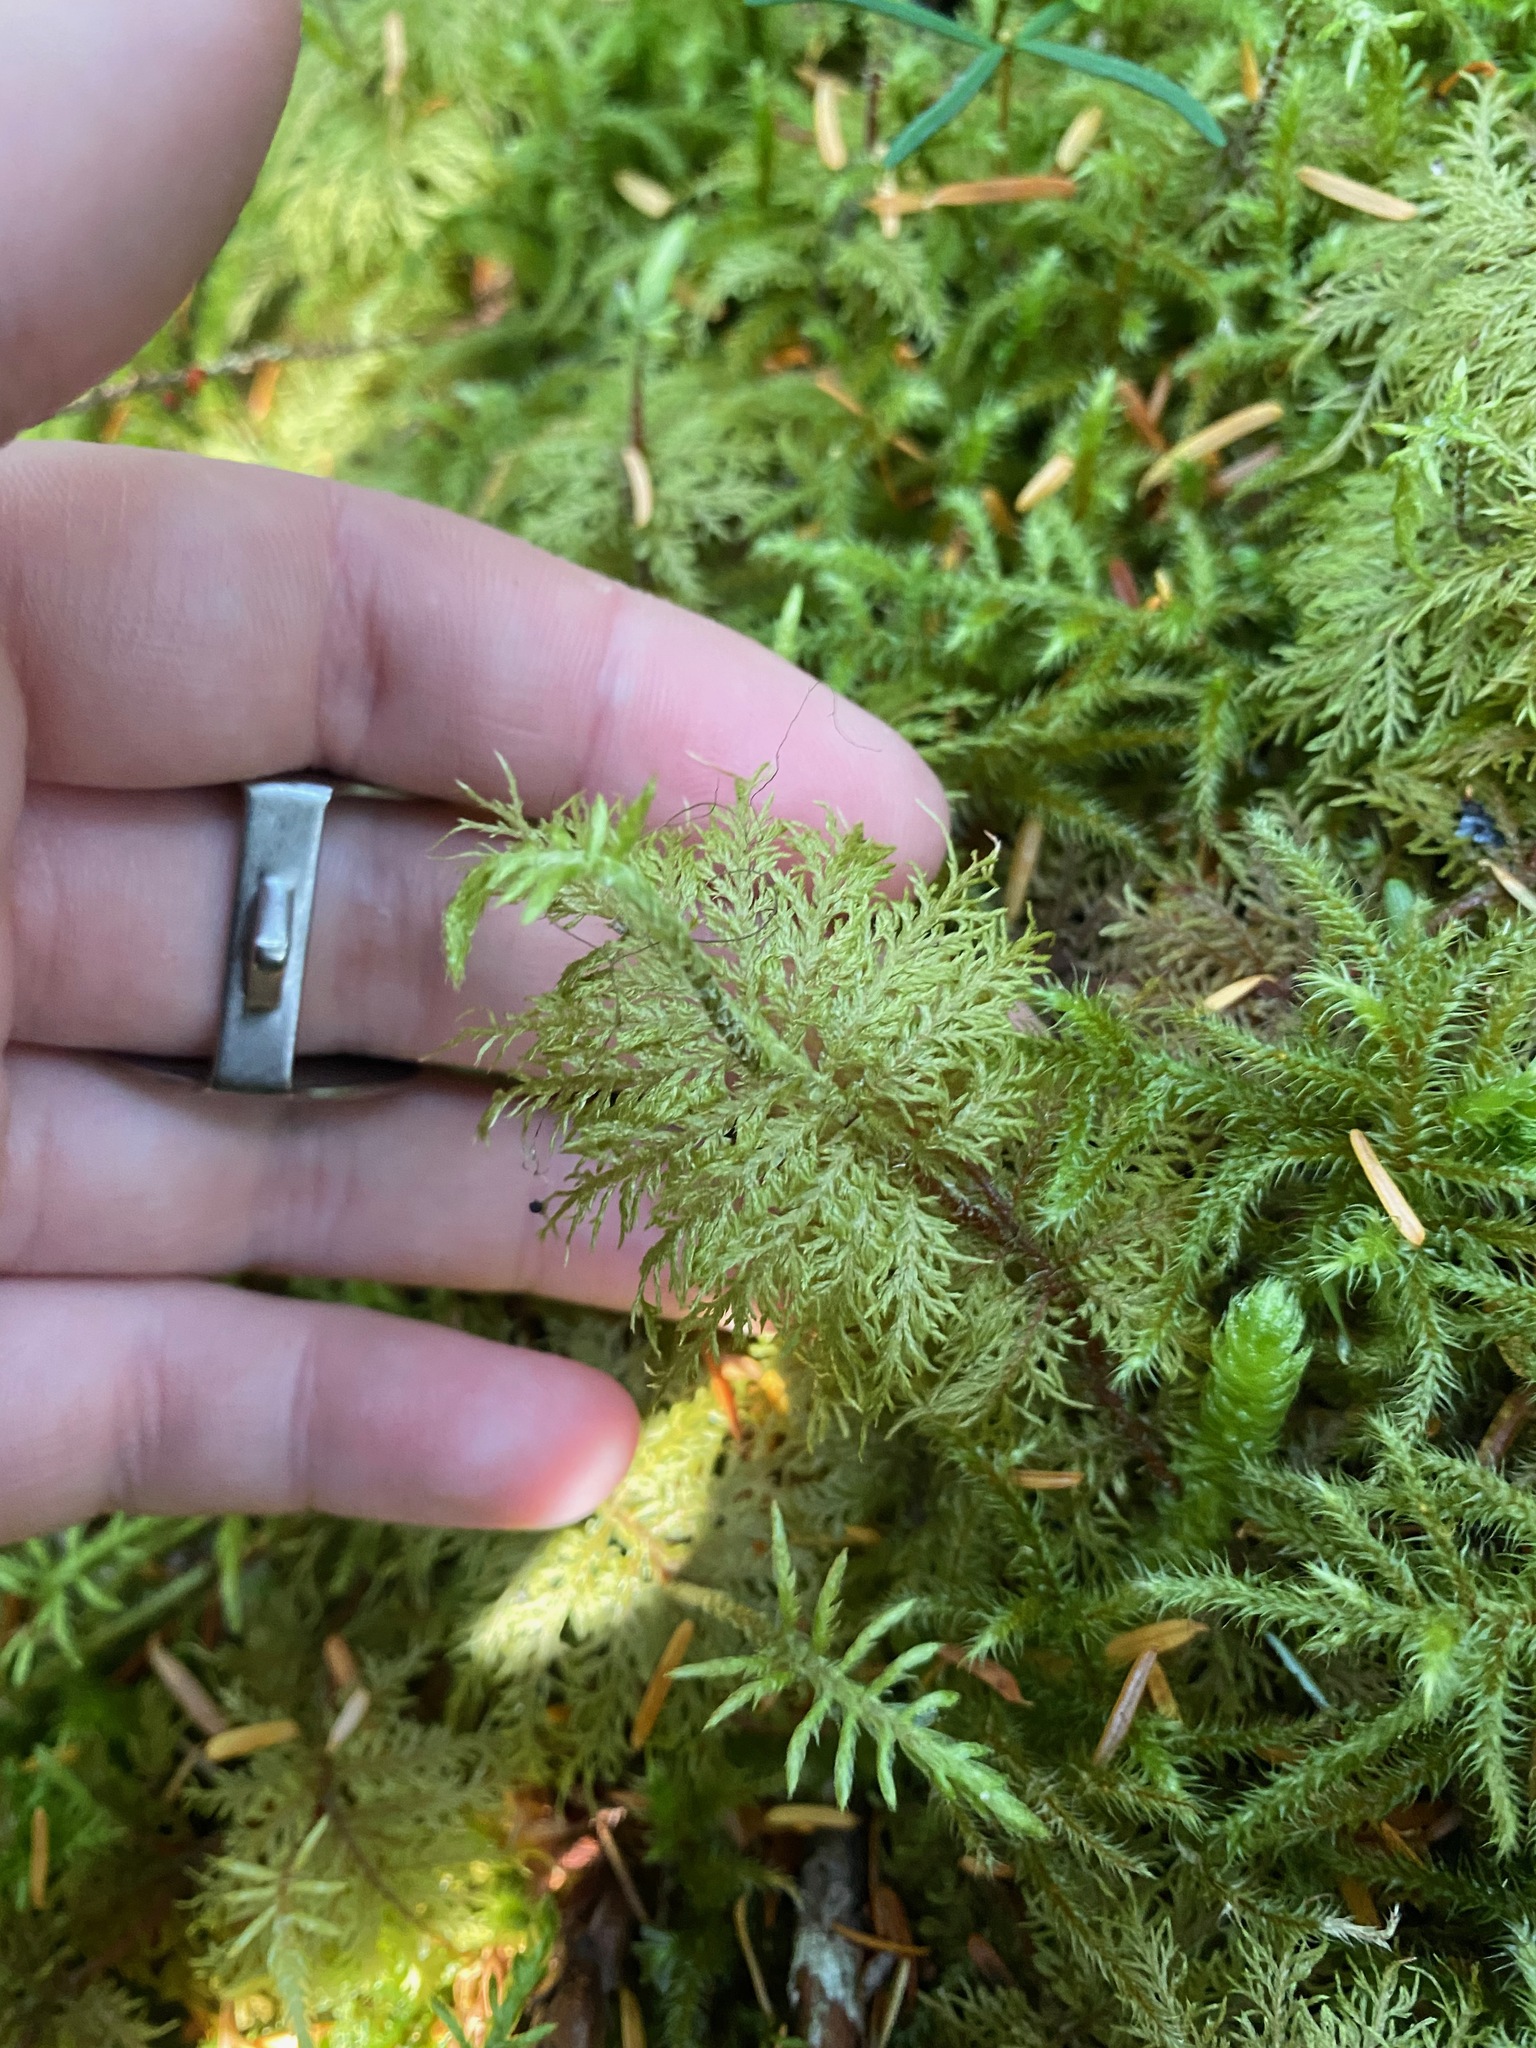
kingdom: Plantae
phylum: Bryophyta
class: Bryopsida
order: Hypnales
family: Hylocomiaceae
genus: Hylocomium
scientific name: Hylocomium splendens
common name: Stairstep moss
